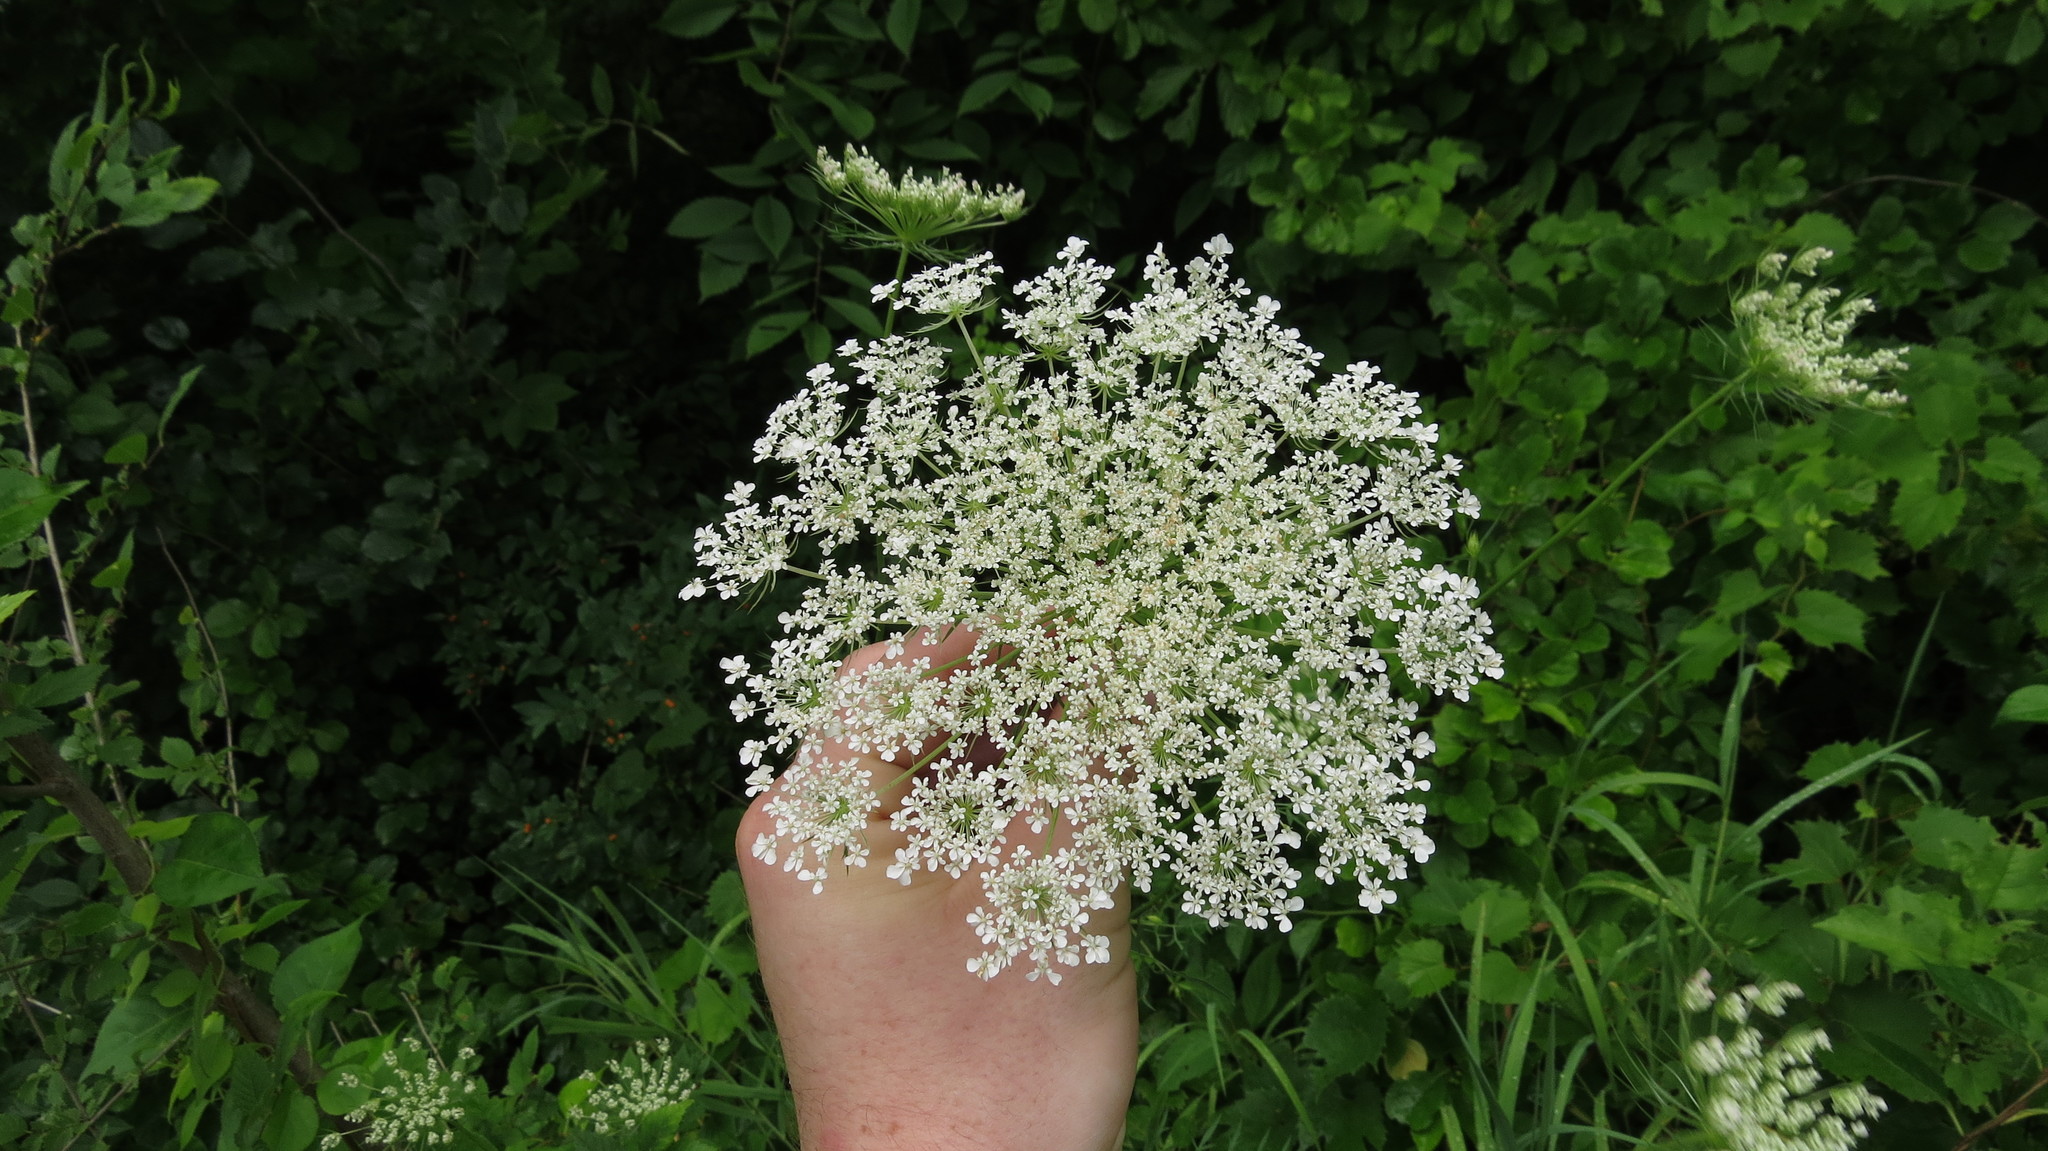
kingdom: Plantae
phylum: Tracheophyta
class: Magnoliopsida
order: Apiales
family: Apiaceae
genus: Daucus
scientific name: Daucus carota
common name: Wild carrot
